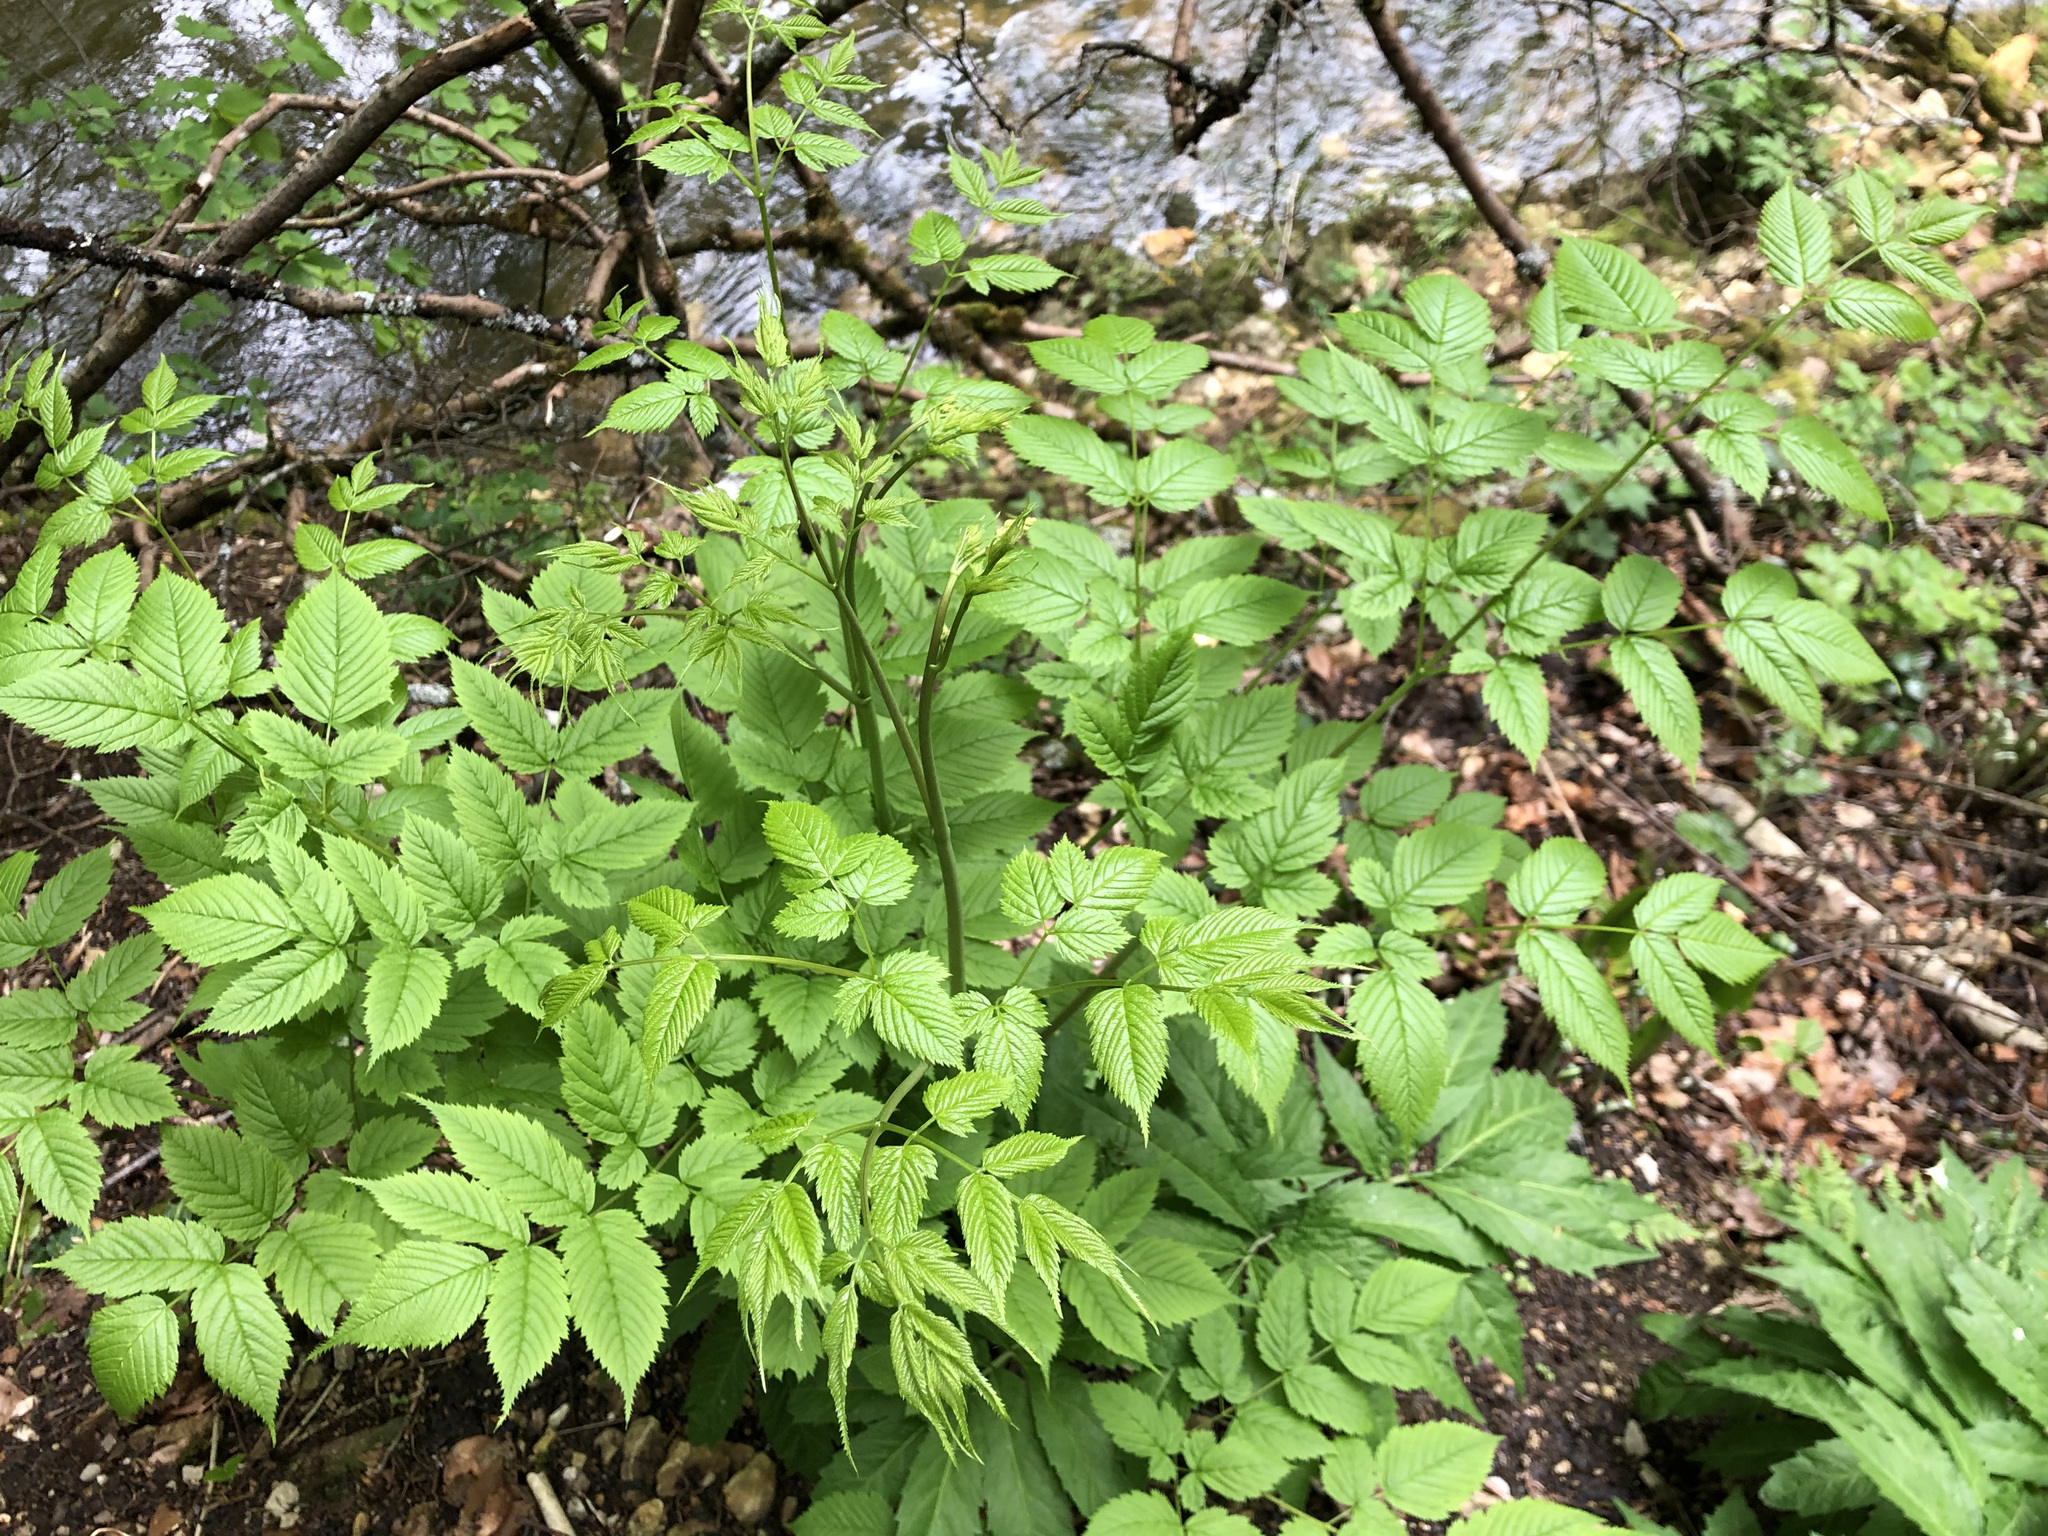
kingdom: Plantae
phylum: Tracheophyta
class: Magnoliopsida
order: Rosales
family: Rosaceae
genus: Aruncus
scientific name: Aruncus dioicus
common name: Buck's-beard
